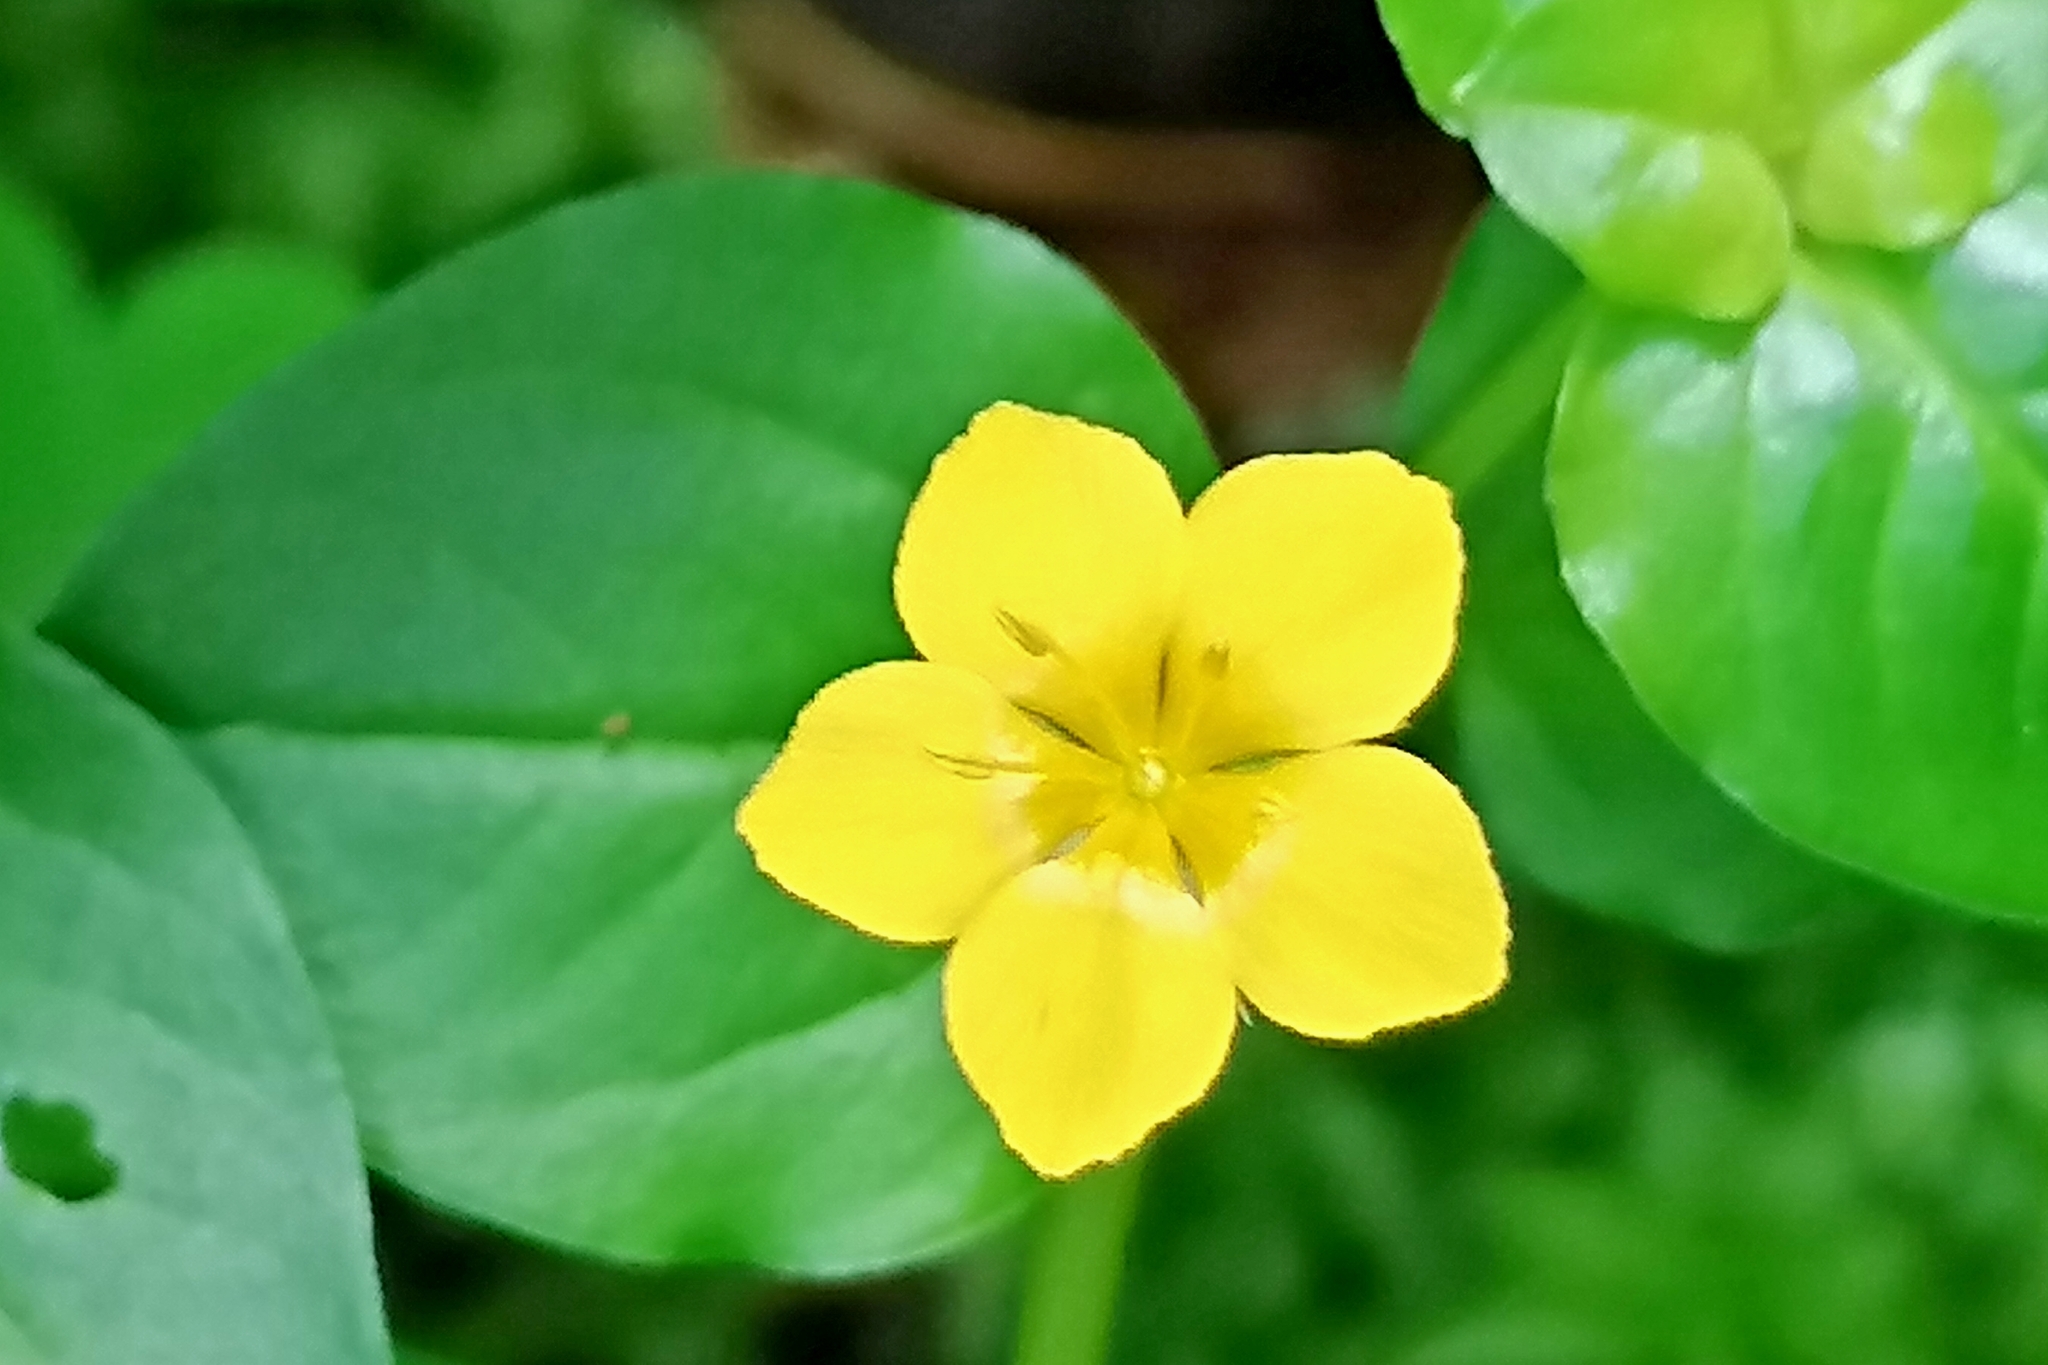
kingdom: Plantae
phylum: Tracheophyta
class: Magnoliopsida
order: Ericales
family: Primulaceae
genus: Lysimachia
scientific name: Lysimachia nemorum
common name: Yellow pimpernel
